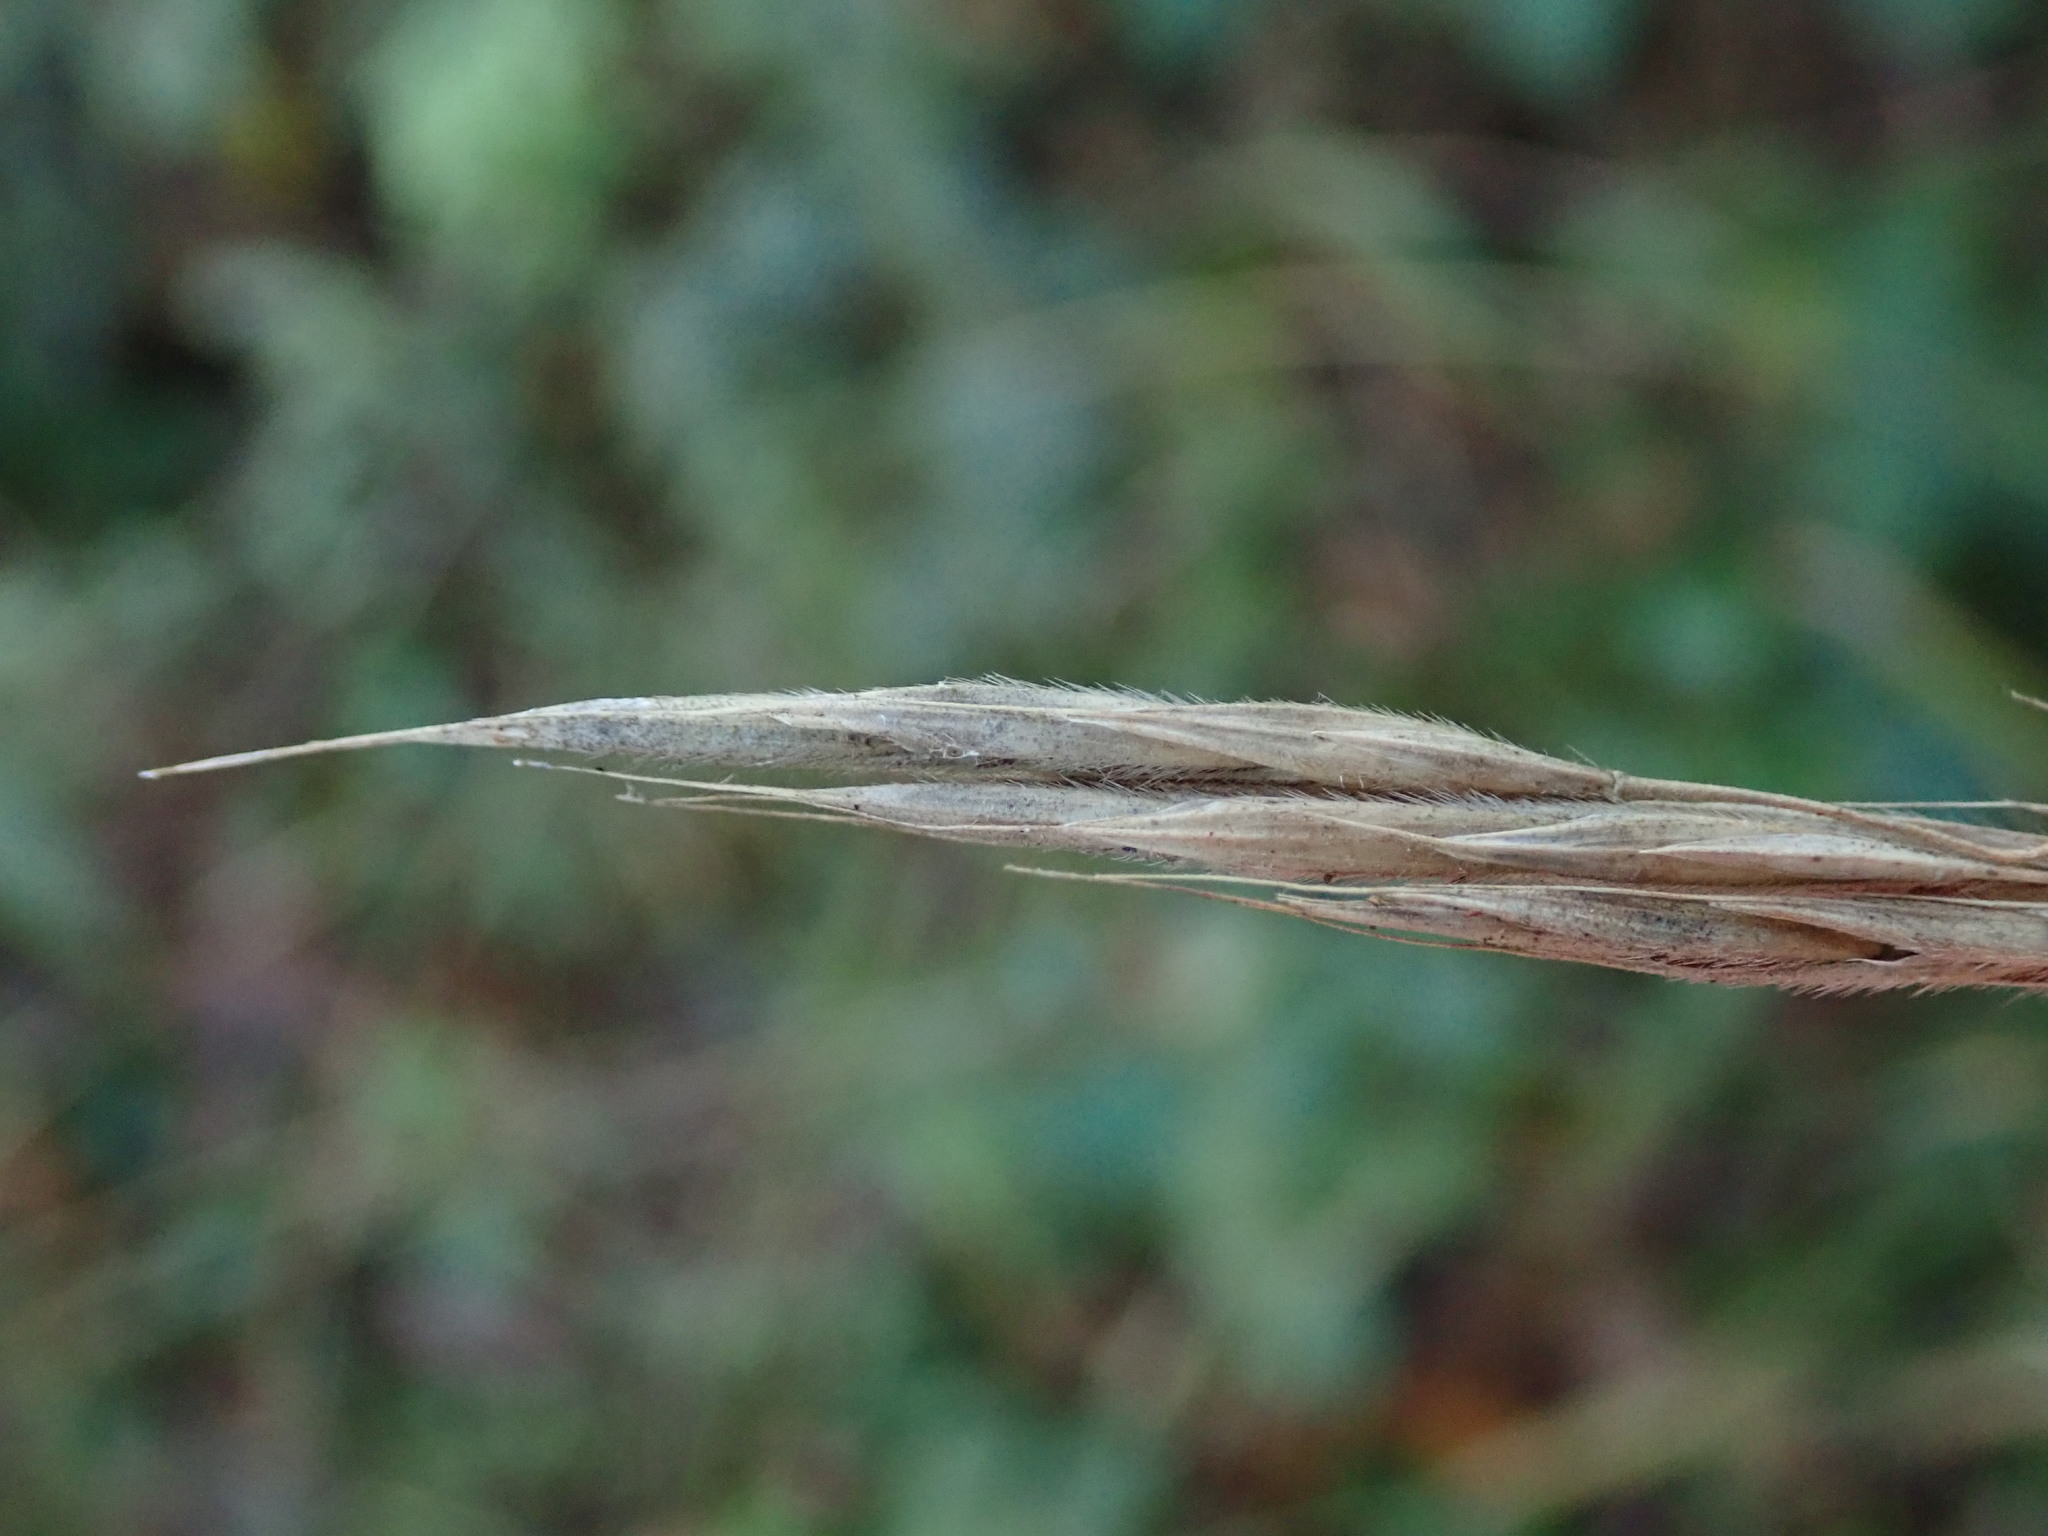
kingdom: Plantae
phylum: Tracheophyta
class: Liliopsida
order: Poales
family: Poaceae
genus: Bromus
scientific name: Bromus ramosus
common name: Hairy brome
